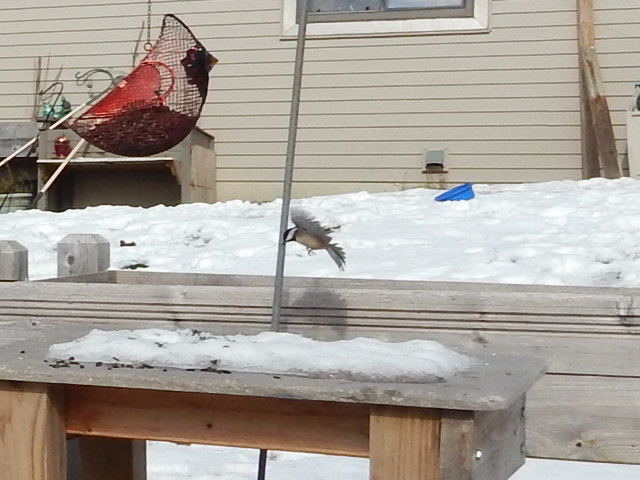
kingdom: Animalia
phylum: Chordata
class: Aves
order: Passeriformes
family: Paridae
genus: Poecile
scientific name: Poecile atricapillus
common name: Black-capped chickadee
